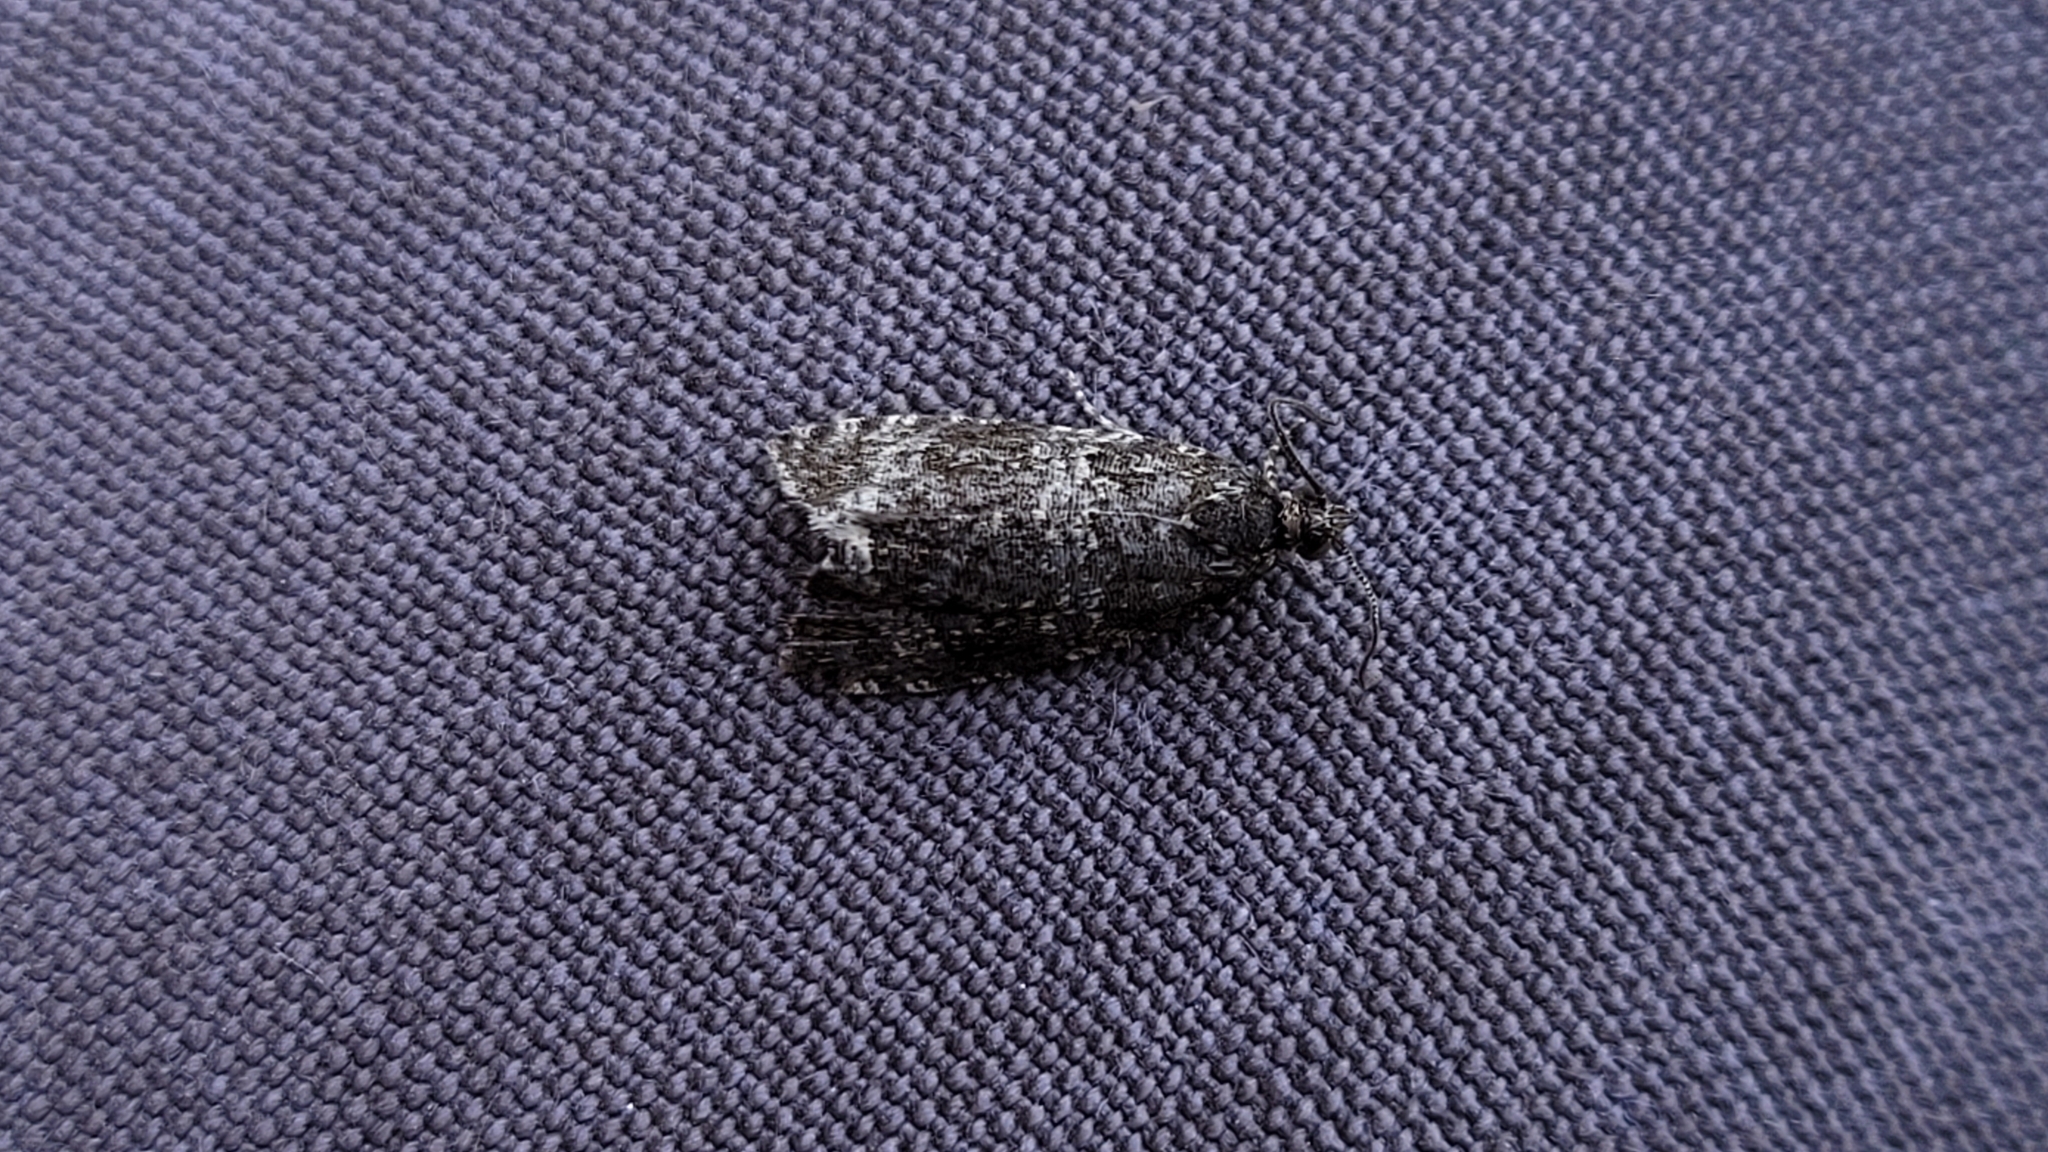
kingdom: Animalia
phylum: Arthropoda
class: Insecta
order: Lepidoptera
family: Tortricidae
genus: Syricoris
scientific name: Syricoris lacunana
